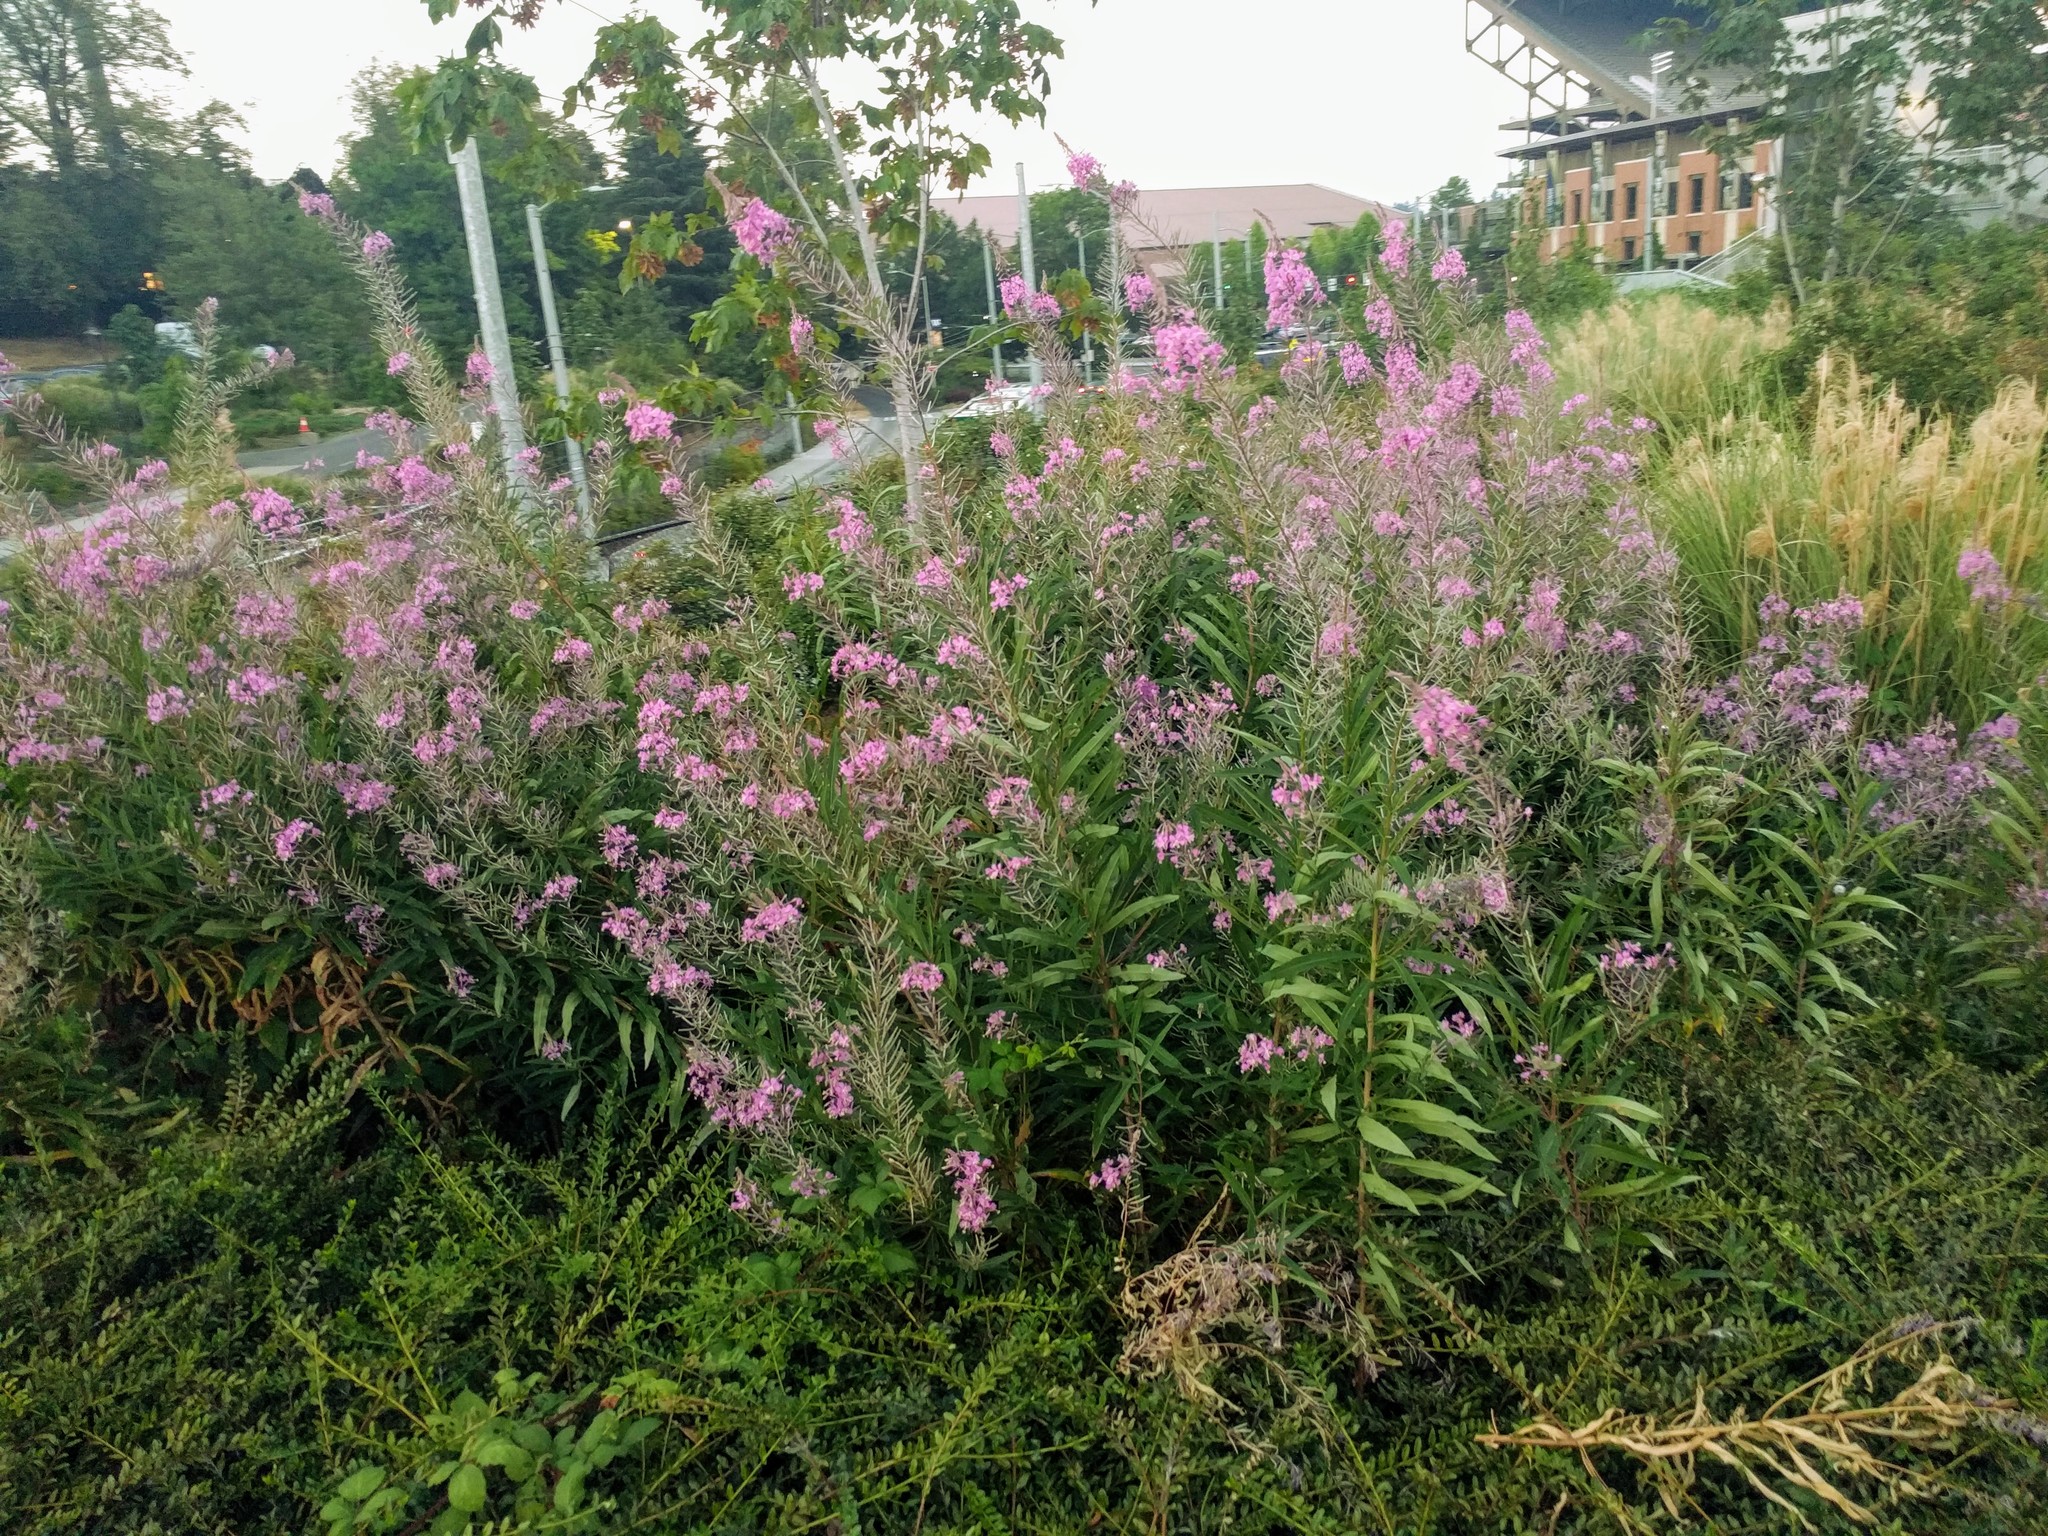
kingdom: Plantae
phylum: Tracheophyta
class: Magnoliopsida
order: Myrtales
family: Onagraceae
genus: Chamaenerion
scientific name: Chamaenerion angustifolium
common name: Fireweed
